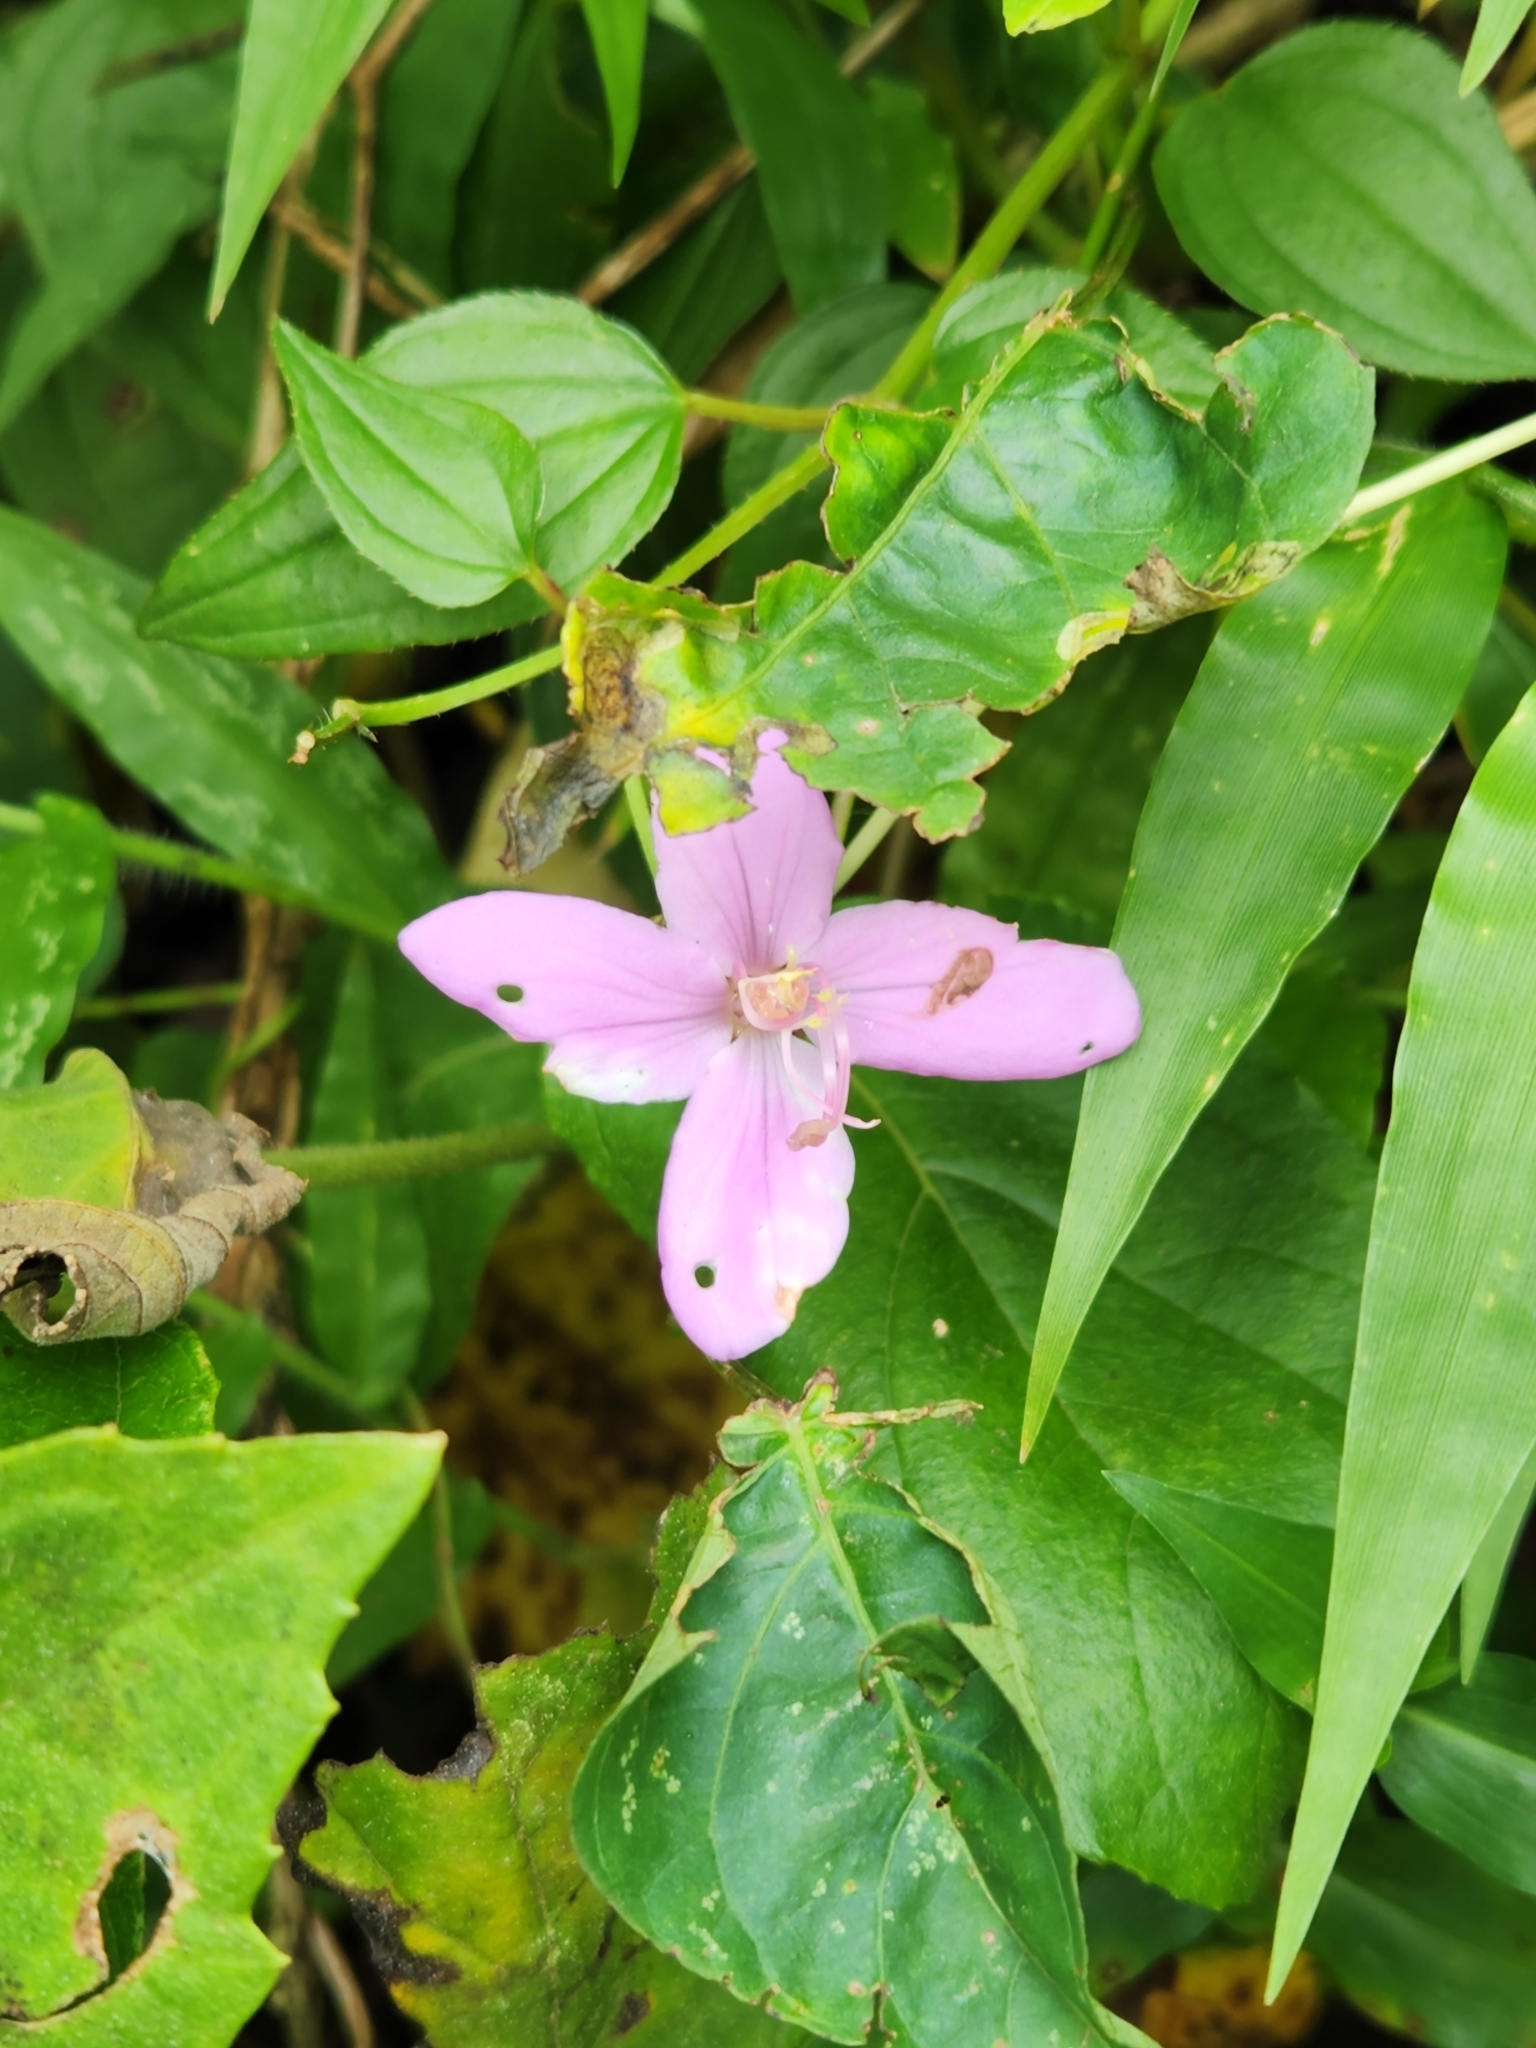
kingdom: Plantae
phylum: Tracheophyta
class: Magnoliopsida
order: Myrtales
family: Melastomataceae
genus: Arthrostemma
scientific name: Arthrostemma ciliatum
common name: Everblooming eavender
